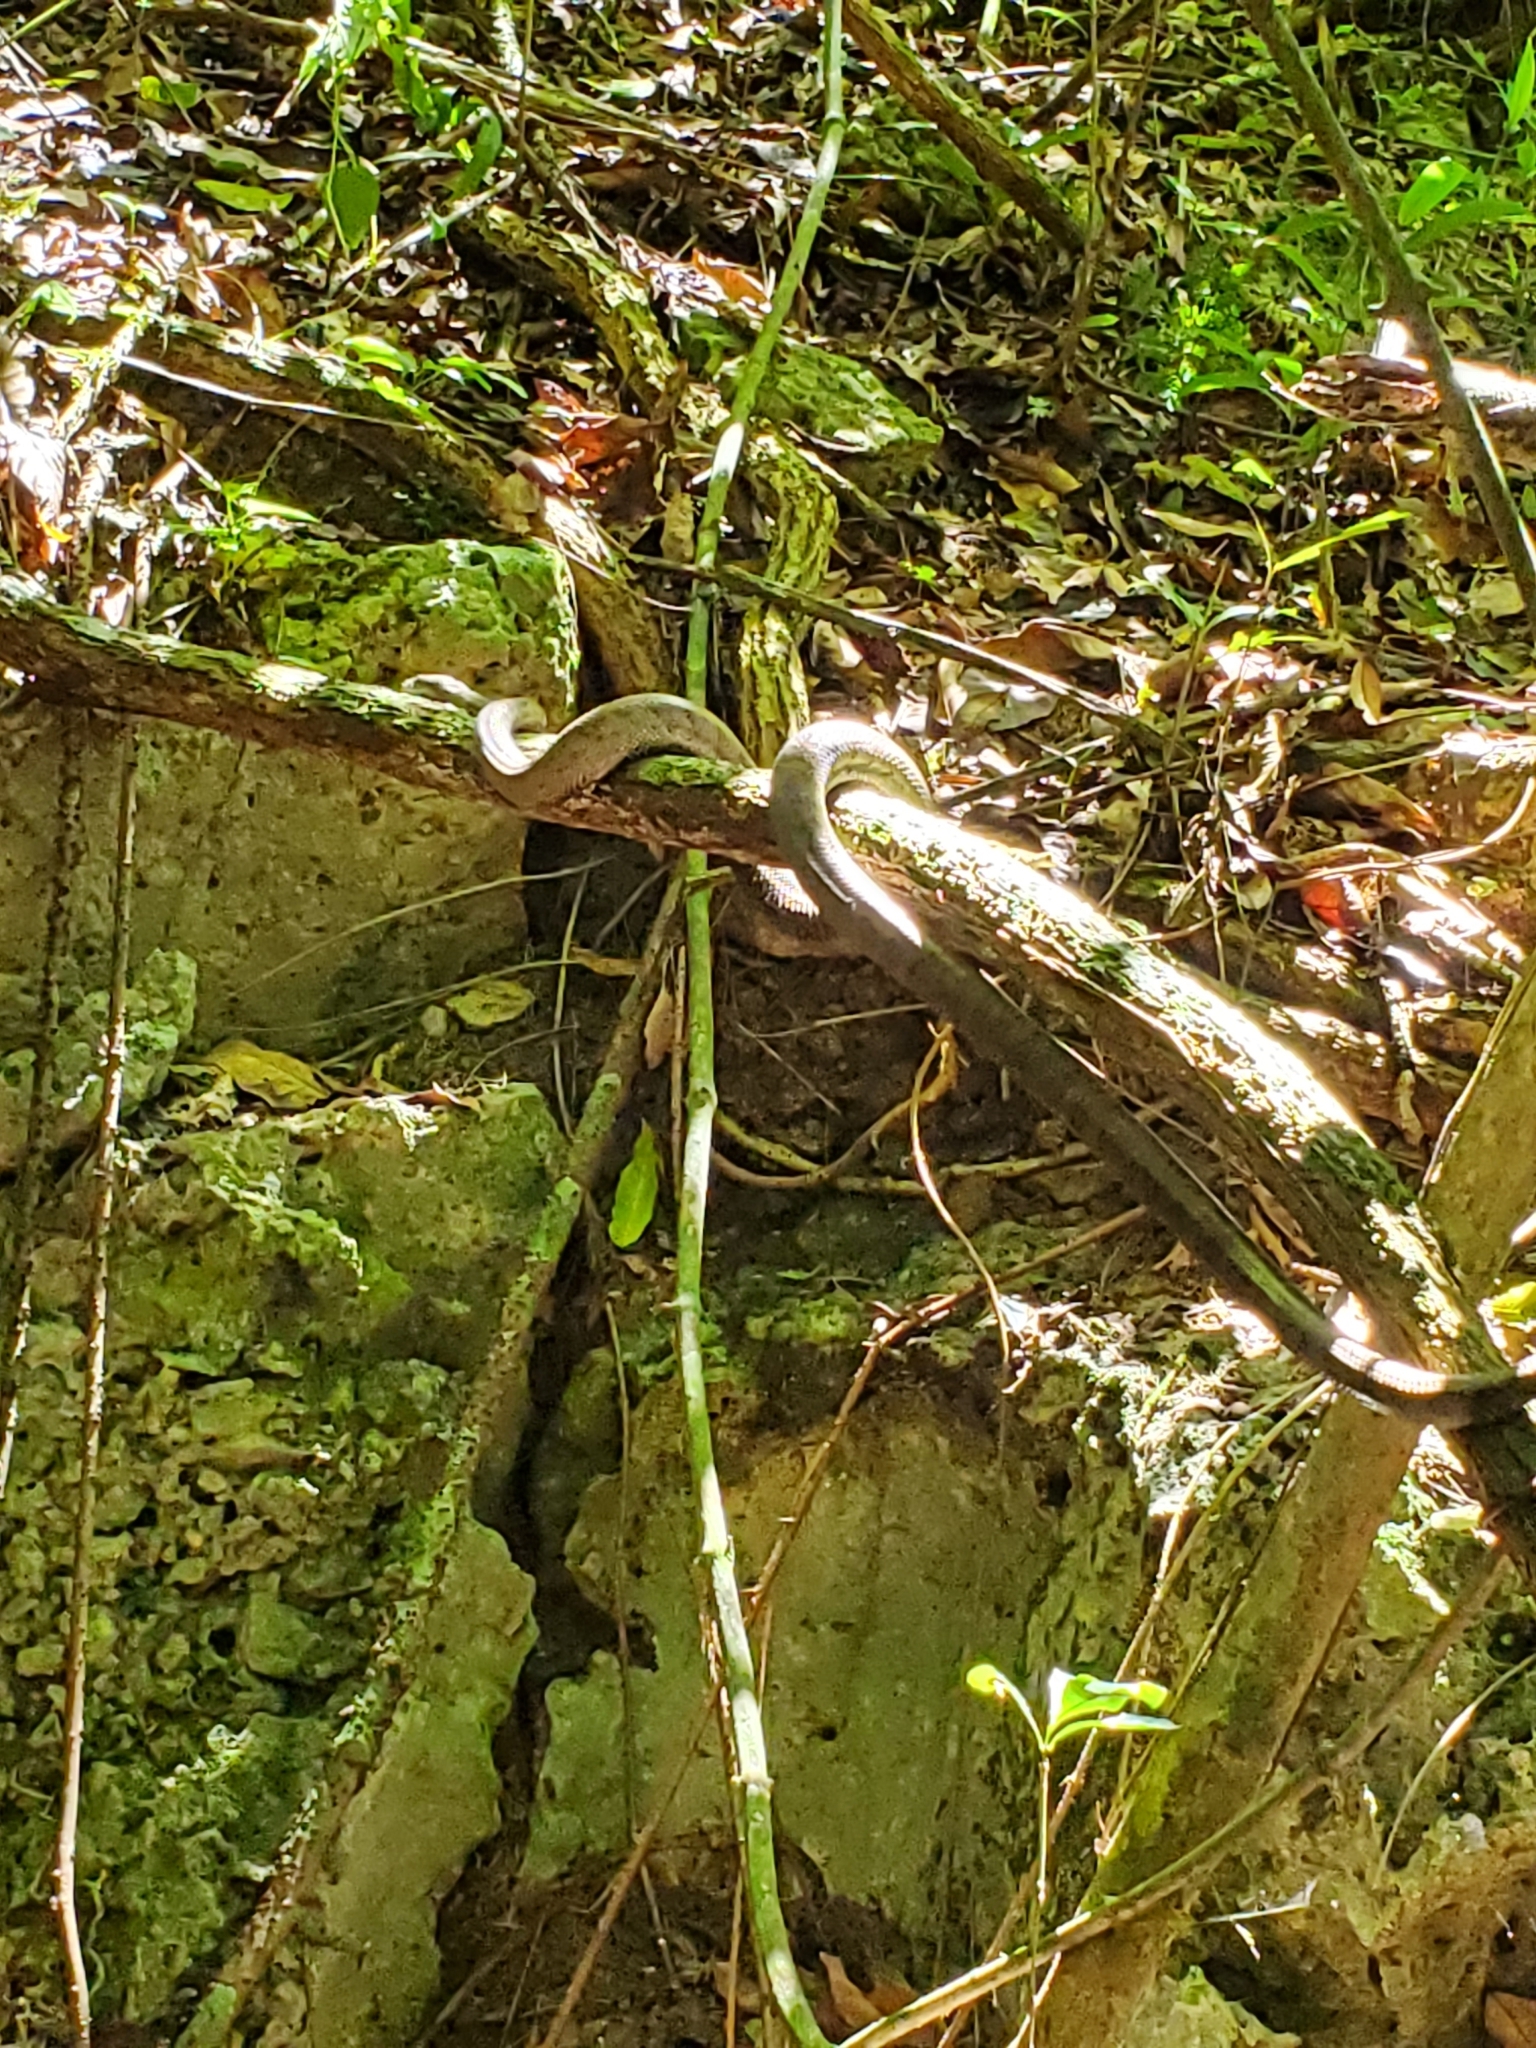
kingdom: Animalia
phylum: Chordata
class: Squamata
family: Boidae
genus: Chilabothrus
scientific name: Chilabothrus inornatus
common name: Puerto rican boa
